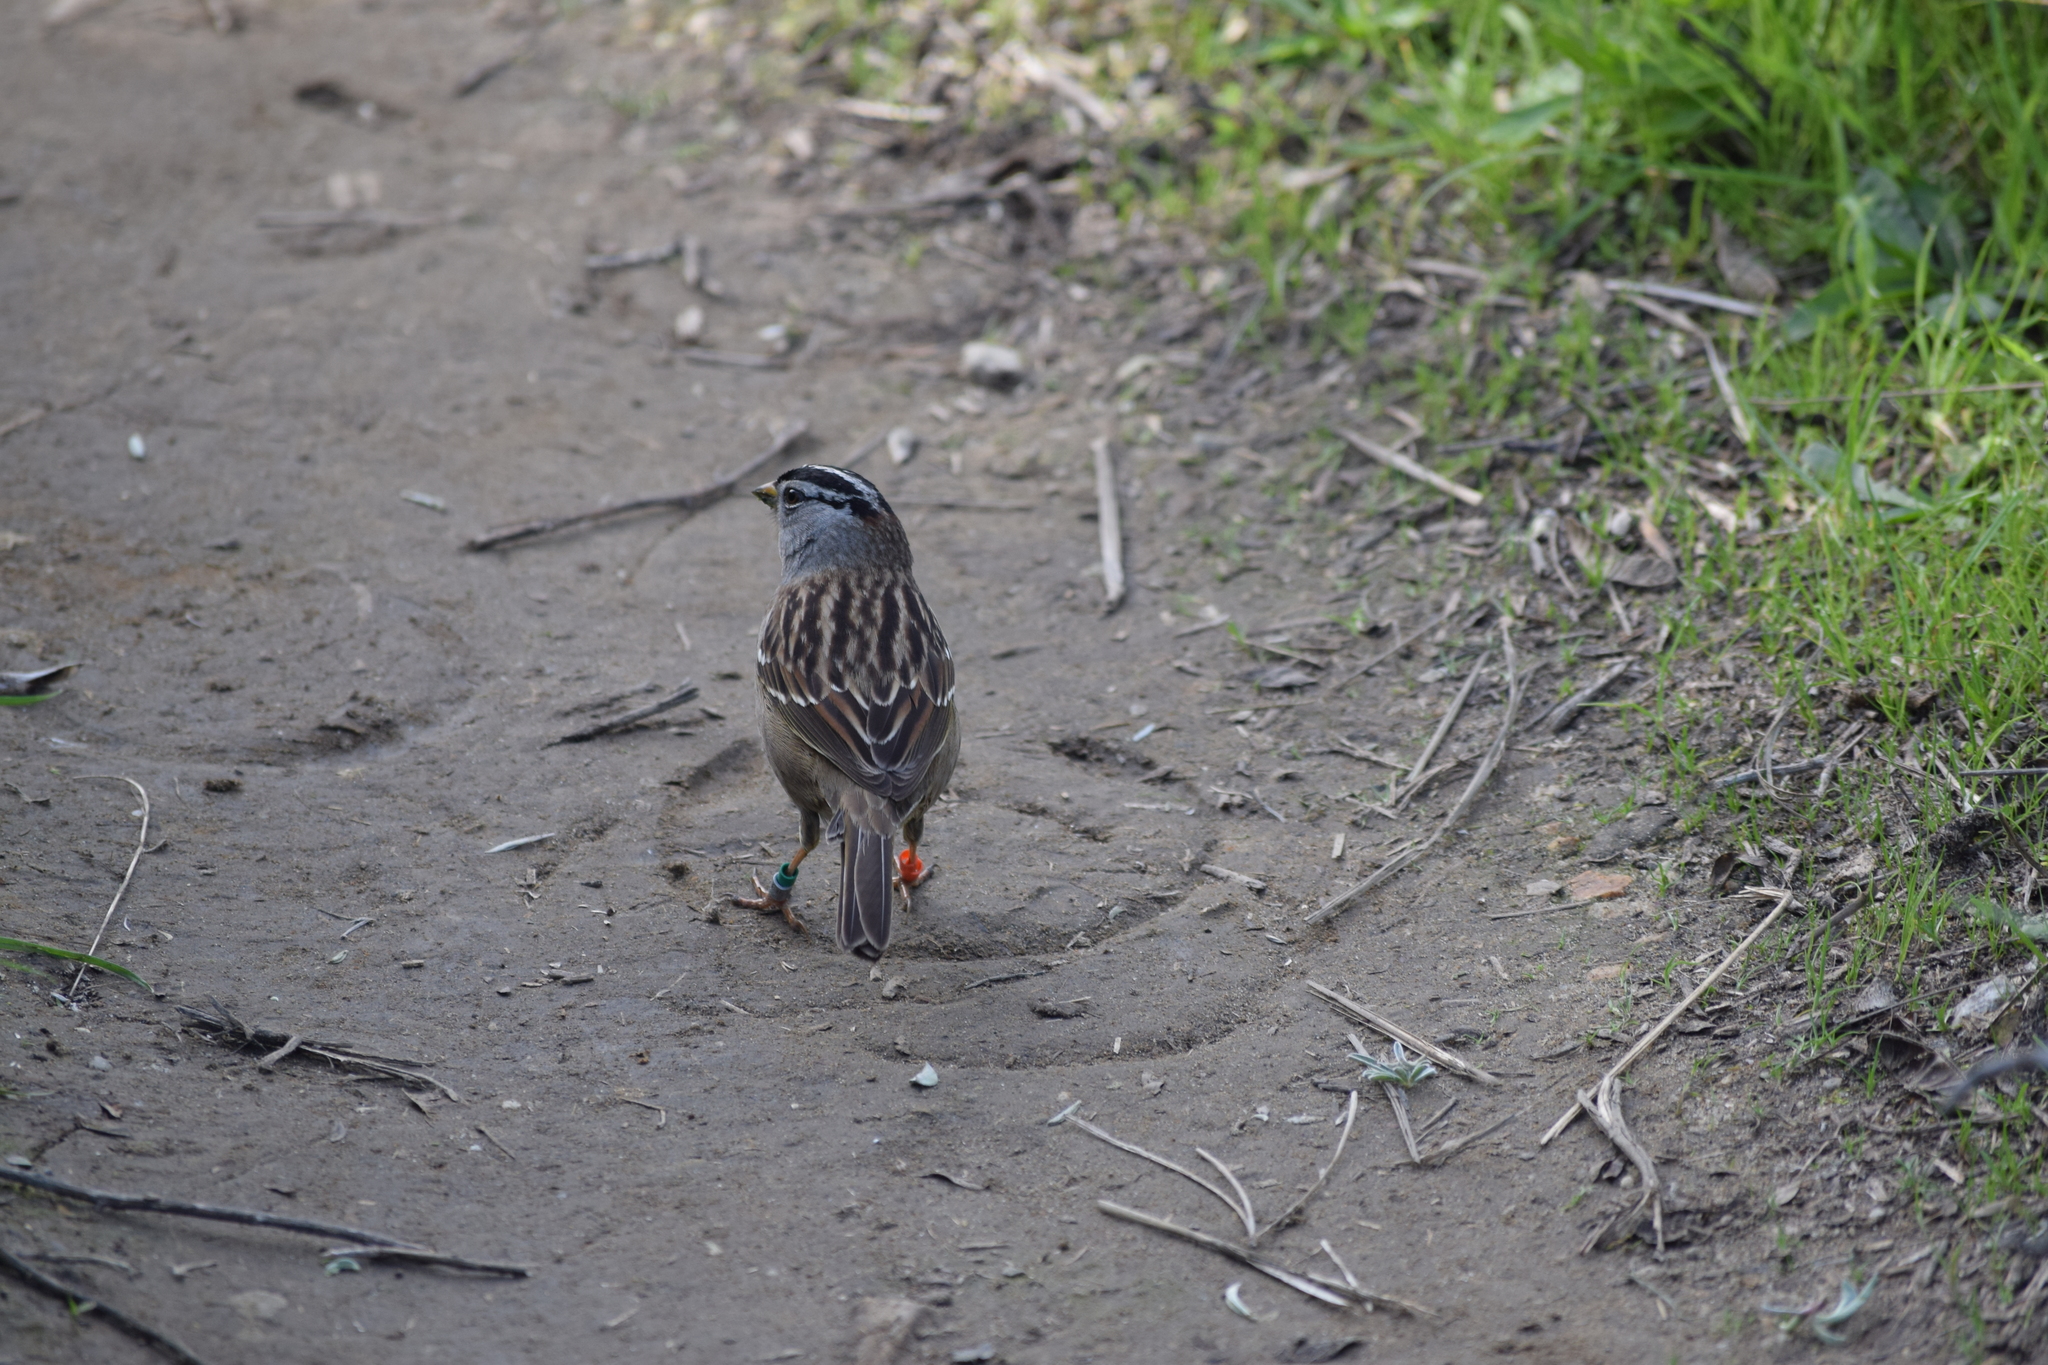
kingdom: Animalia
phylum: Chordata
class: Aves
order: Passeriformes
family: Passerellidae
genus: Zonotrichia
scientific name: Zonotrichia leucophrys
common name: White-crowned sparrow
